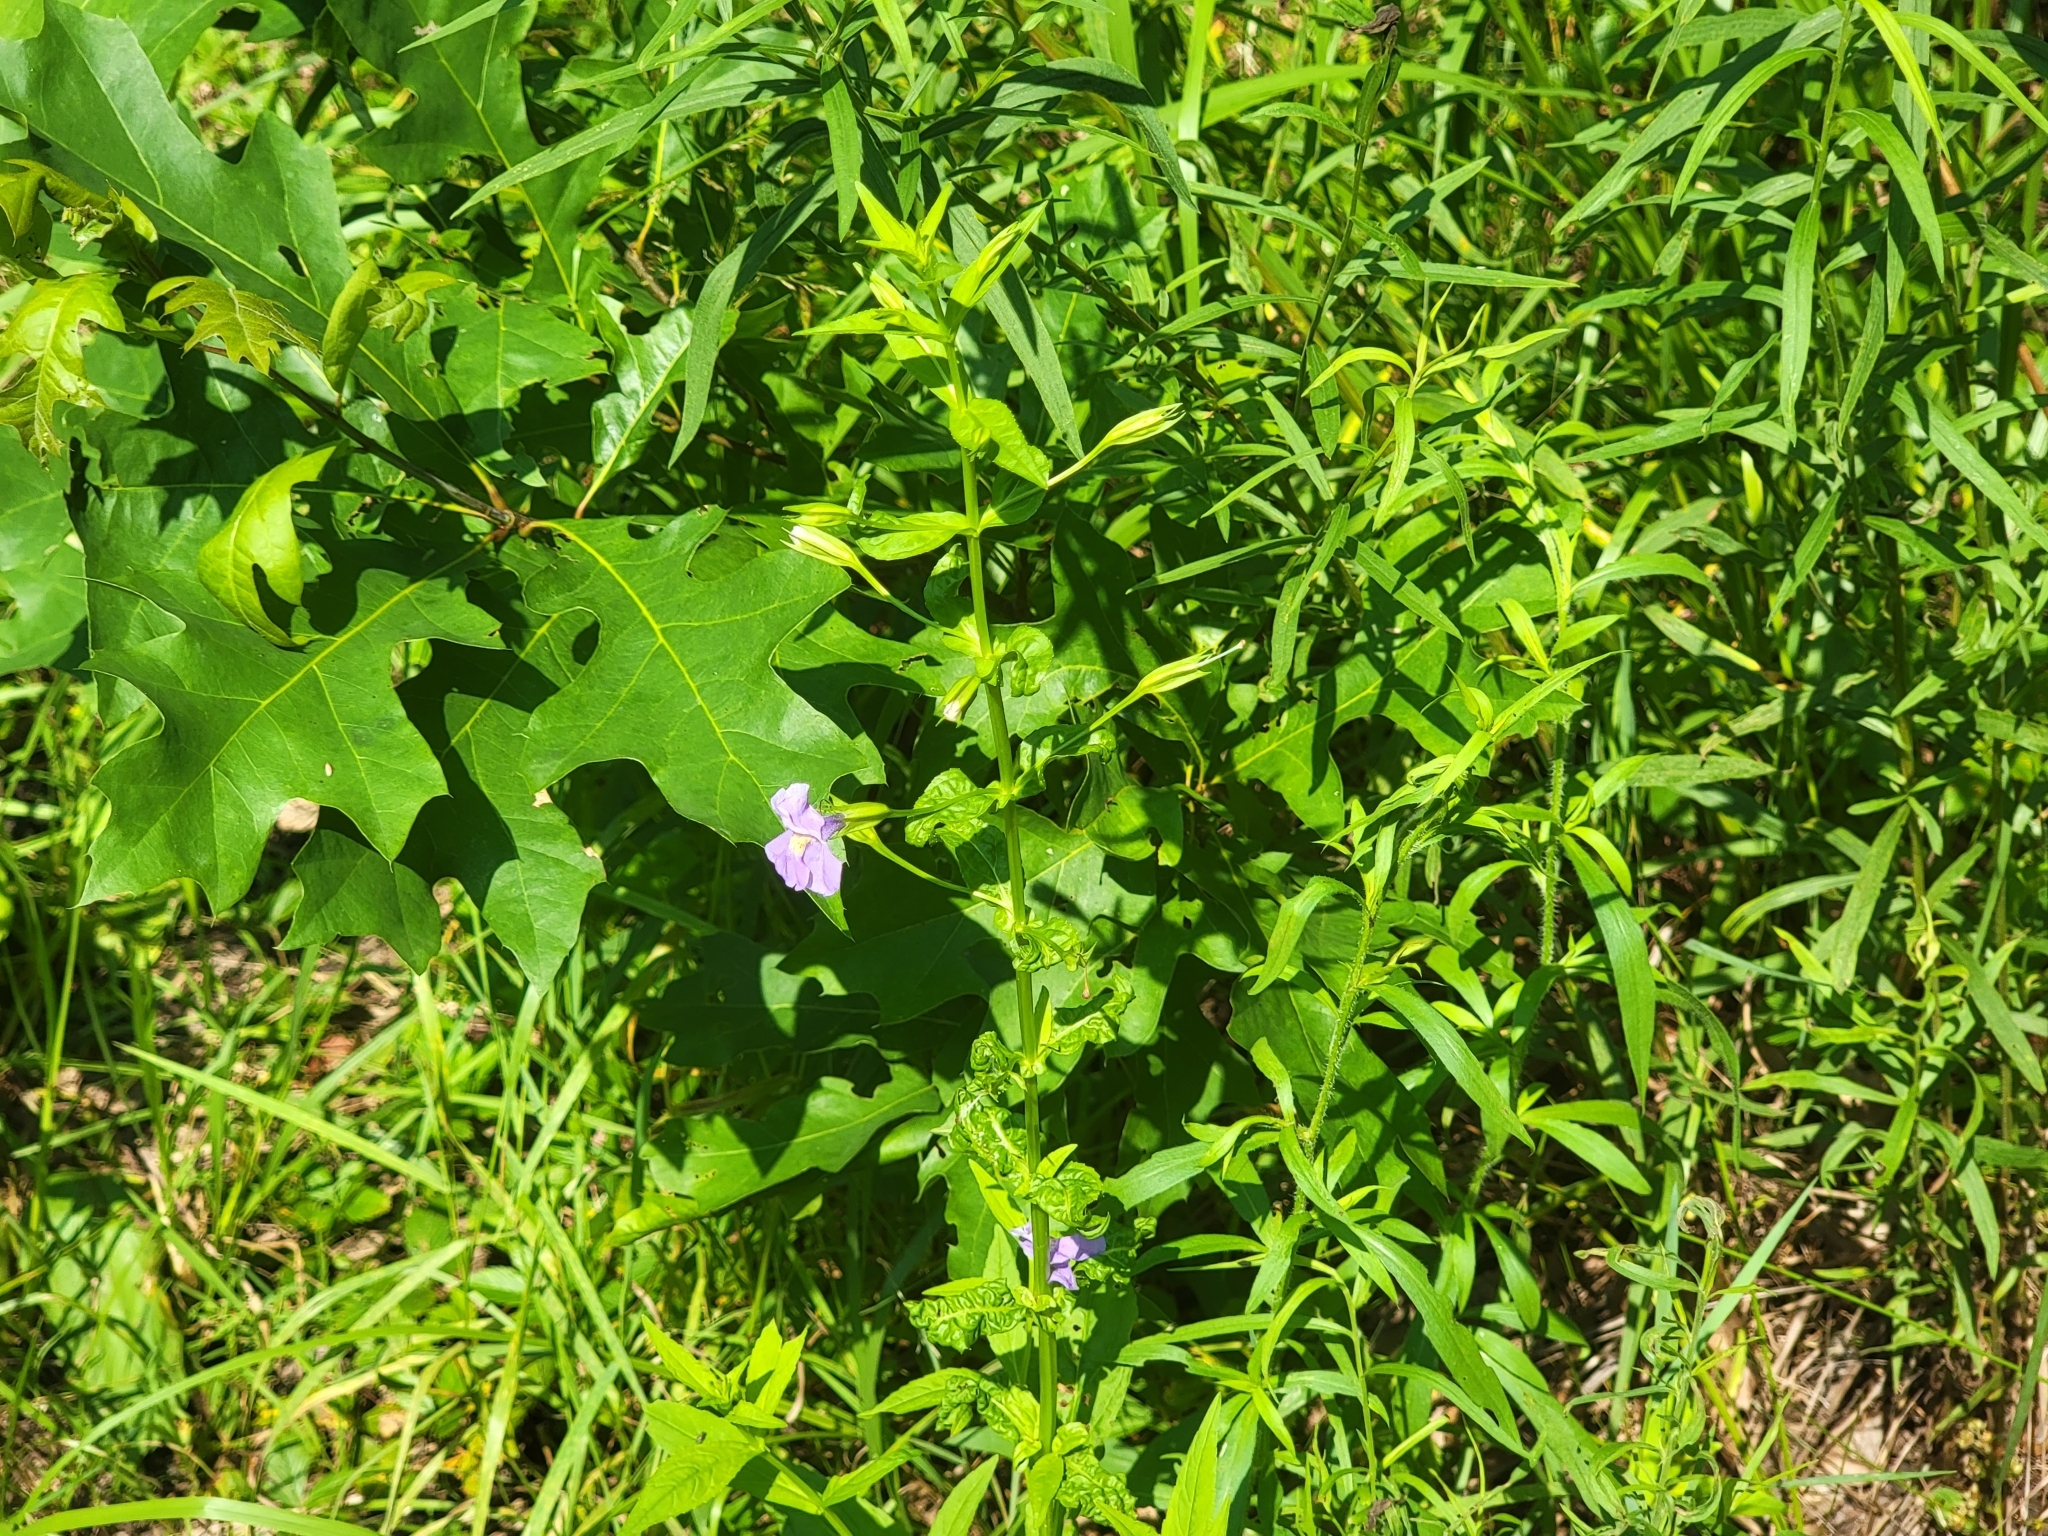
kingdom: Plantae
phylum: Tracheophyta
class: Magnoliopsida
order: Lamiales
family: Phrymaceae
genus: Mimulus
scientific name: Mimulus ringens
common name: Allegheny monkeyflower
